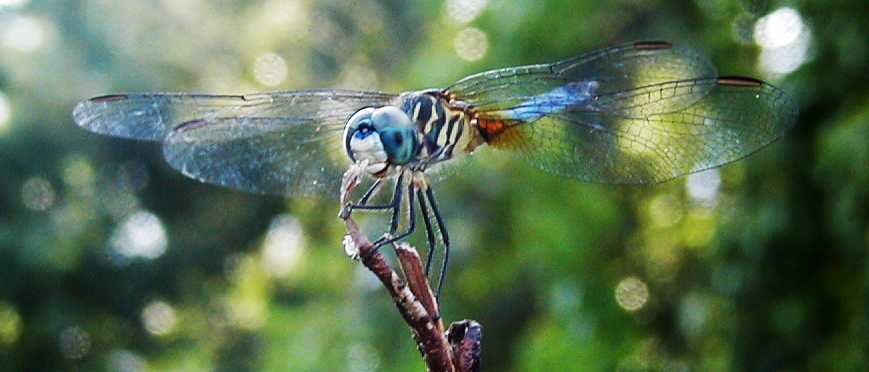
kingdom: Animalia
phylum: Arthropoda
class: Insecta
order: Odonata
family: Libellulidae
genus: Pachydiplax
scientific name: Pachydiplax longipennis
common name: Blue dasher
